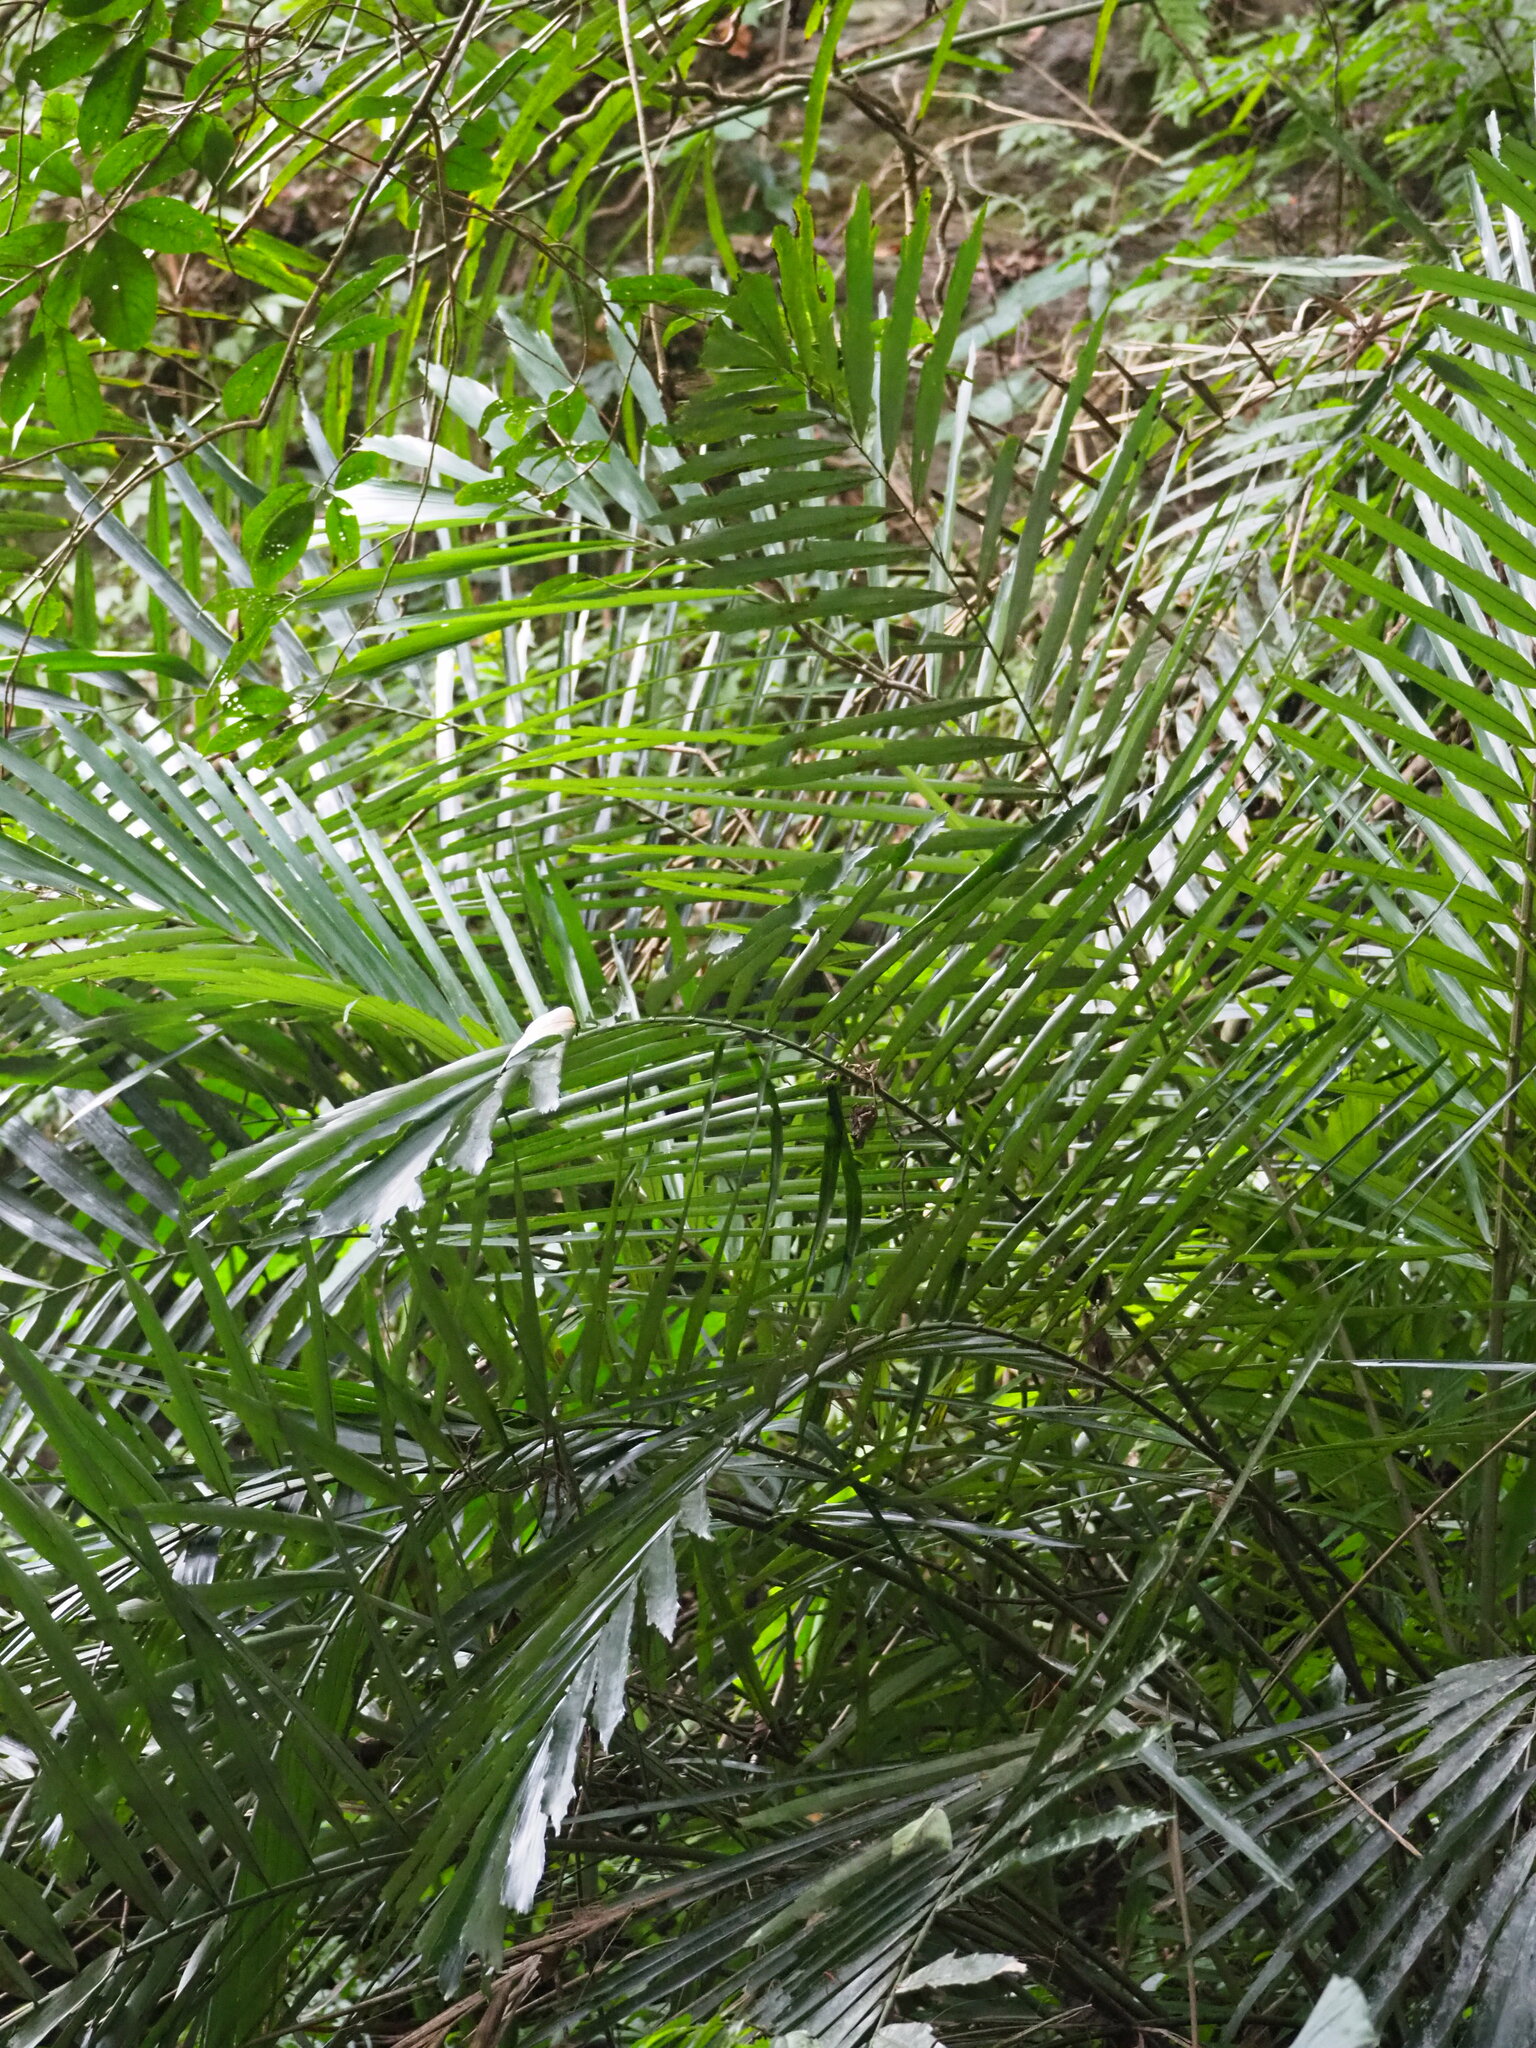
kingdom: Plantae
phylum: Tracheophyta
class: Liliopsida
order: Arecales
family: Arecaceae
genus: Arenga
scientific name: Arenga engleri
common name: Formosan sugar palm
